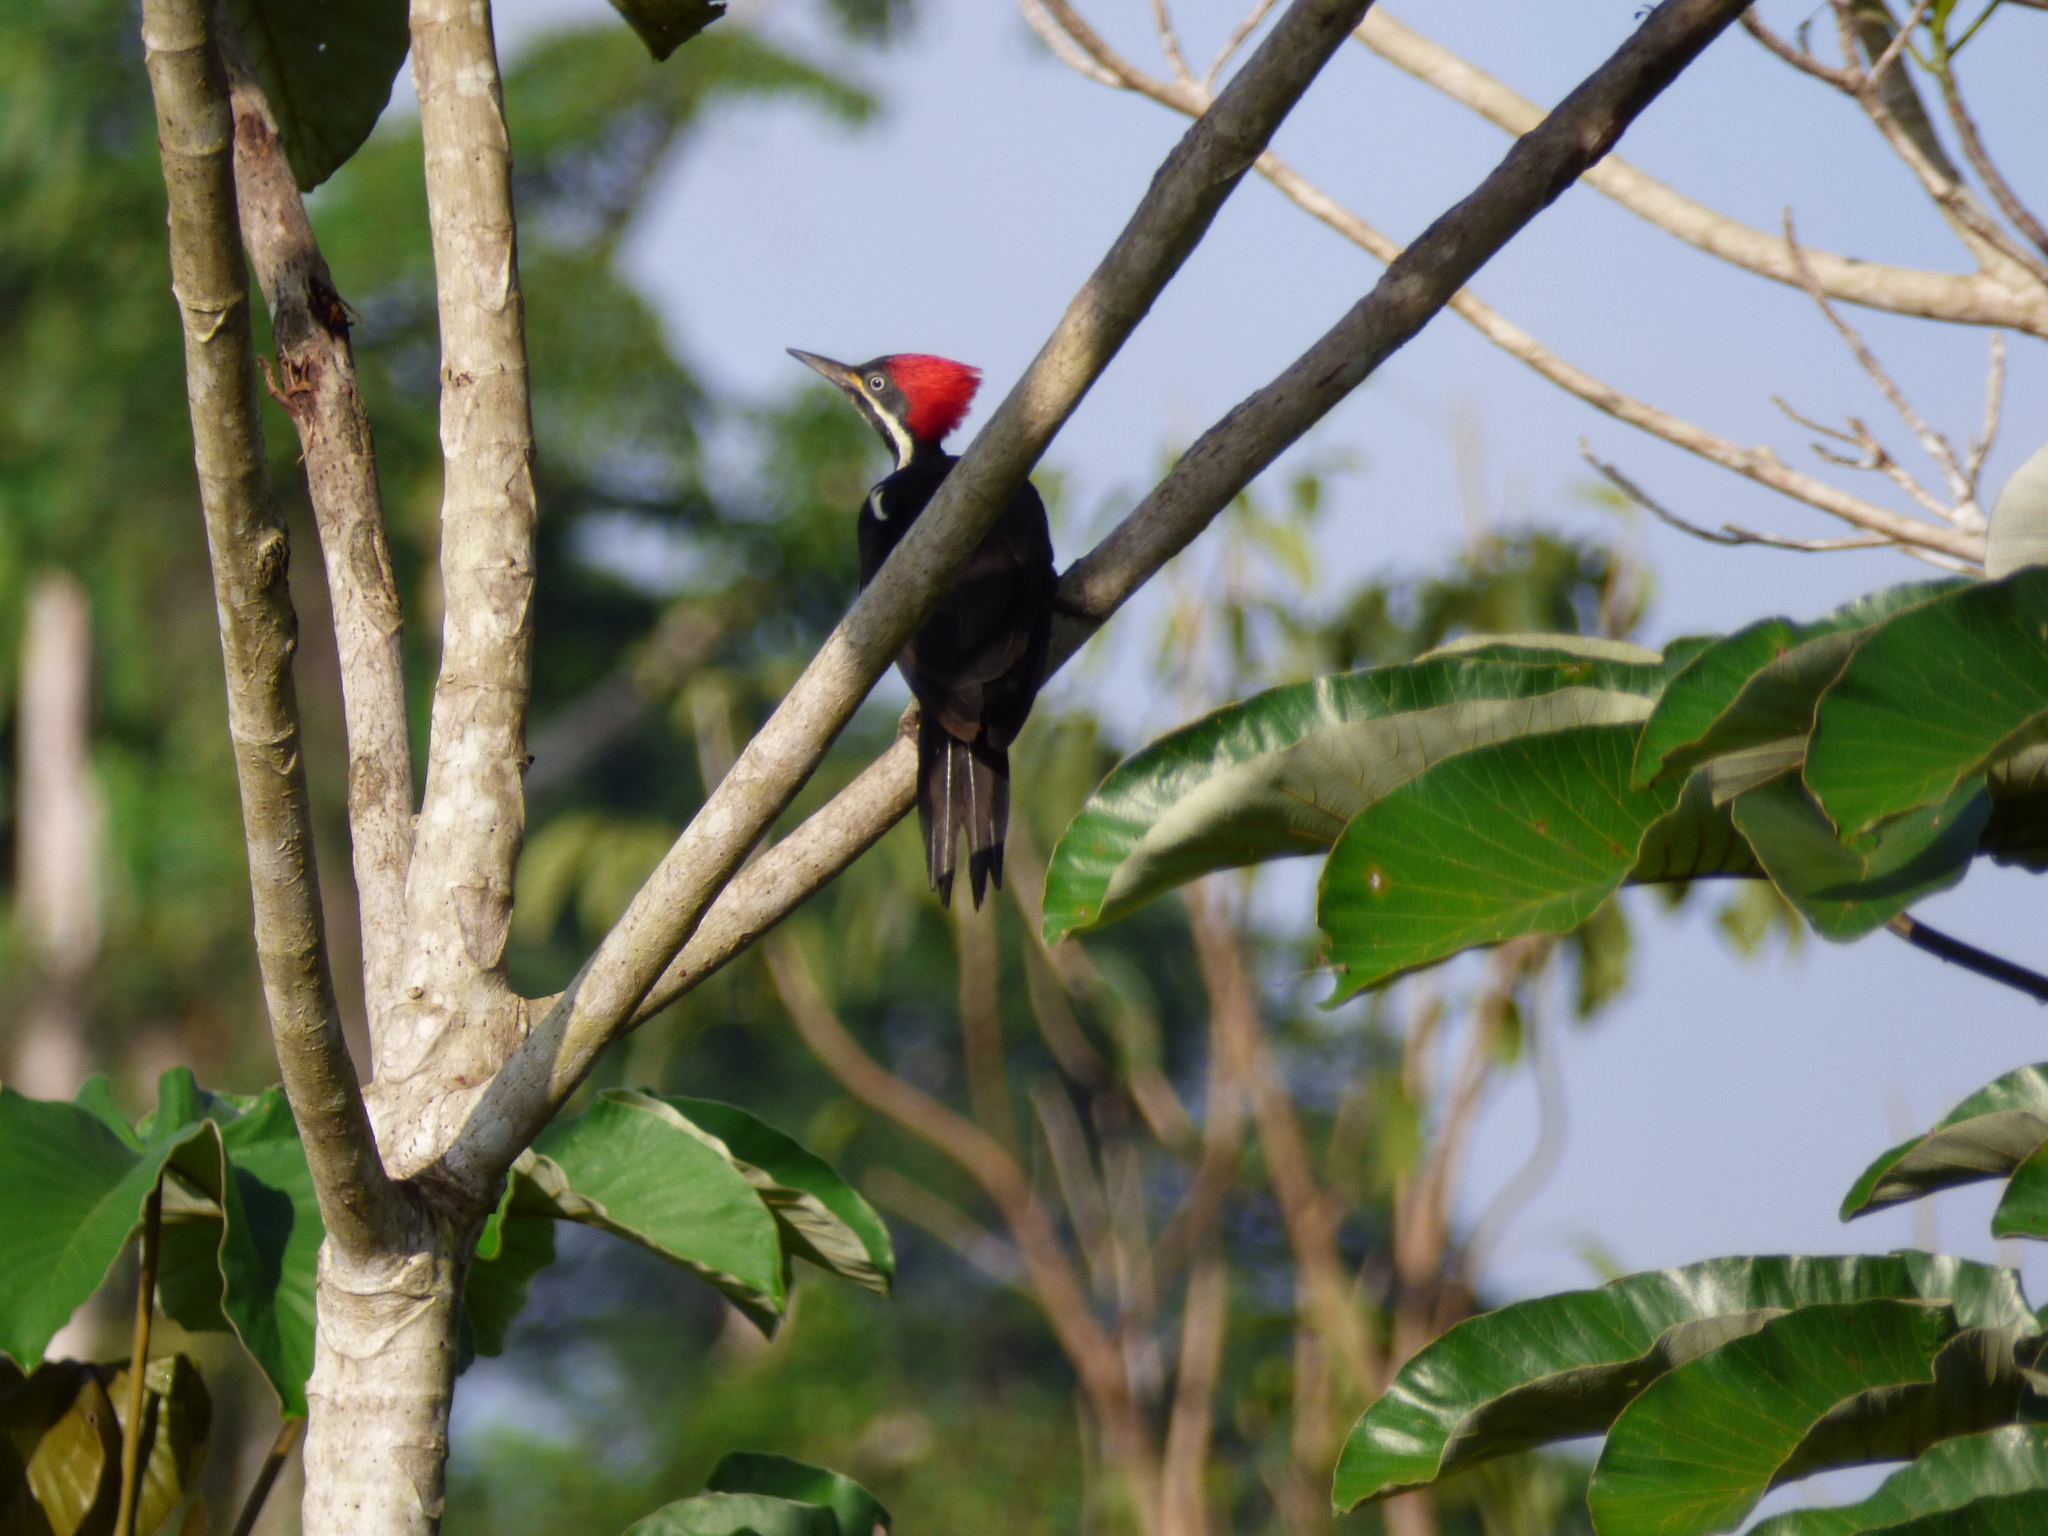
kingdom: Animalia
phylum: Chordata
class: Aves
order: Piciformes
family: Picidae
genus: Dryocopus
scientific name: Dryocopus lineatus
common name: Lineated woodpecker
